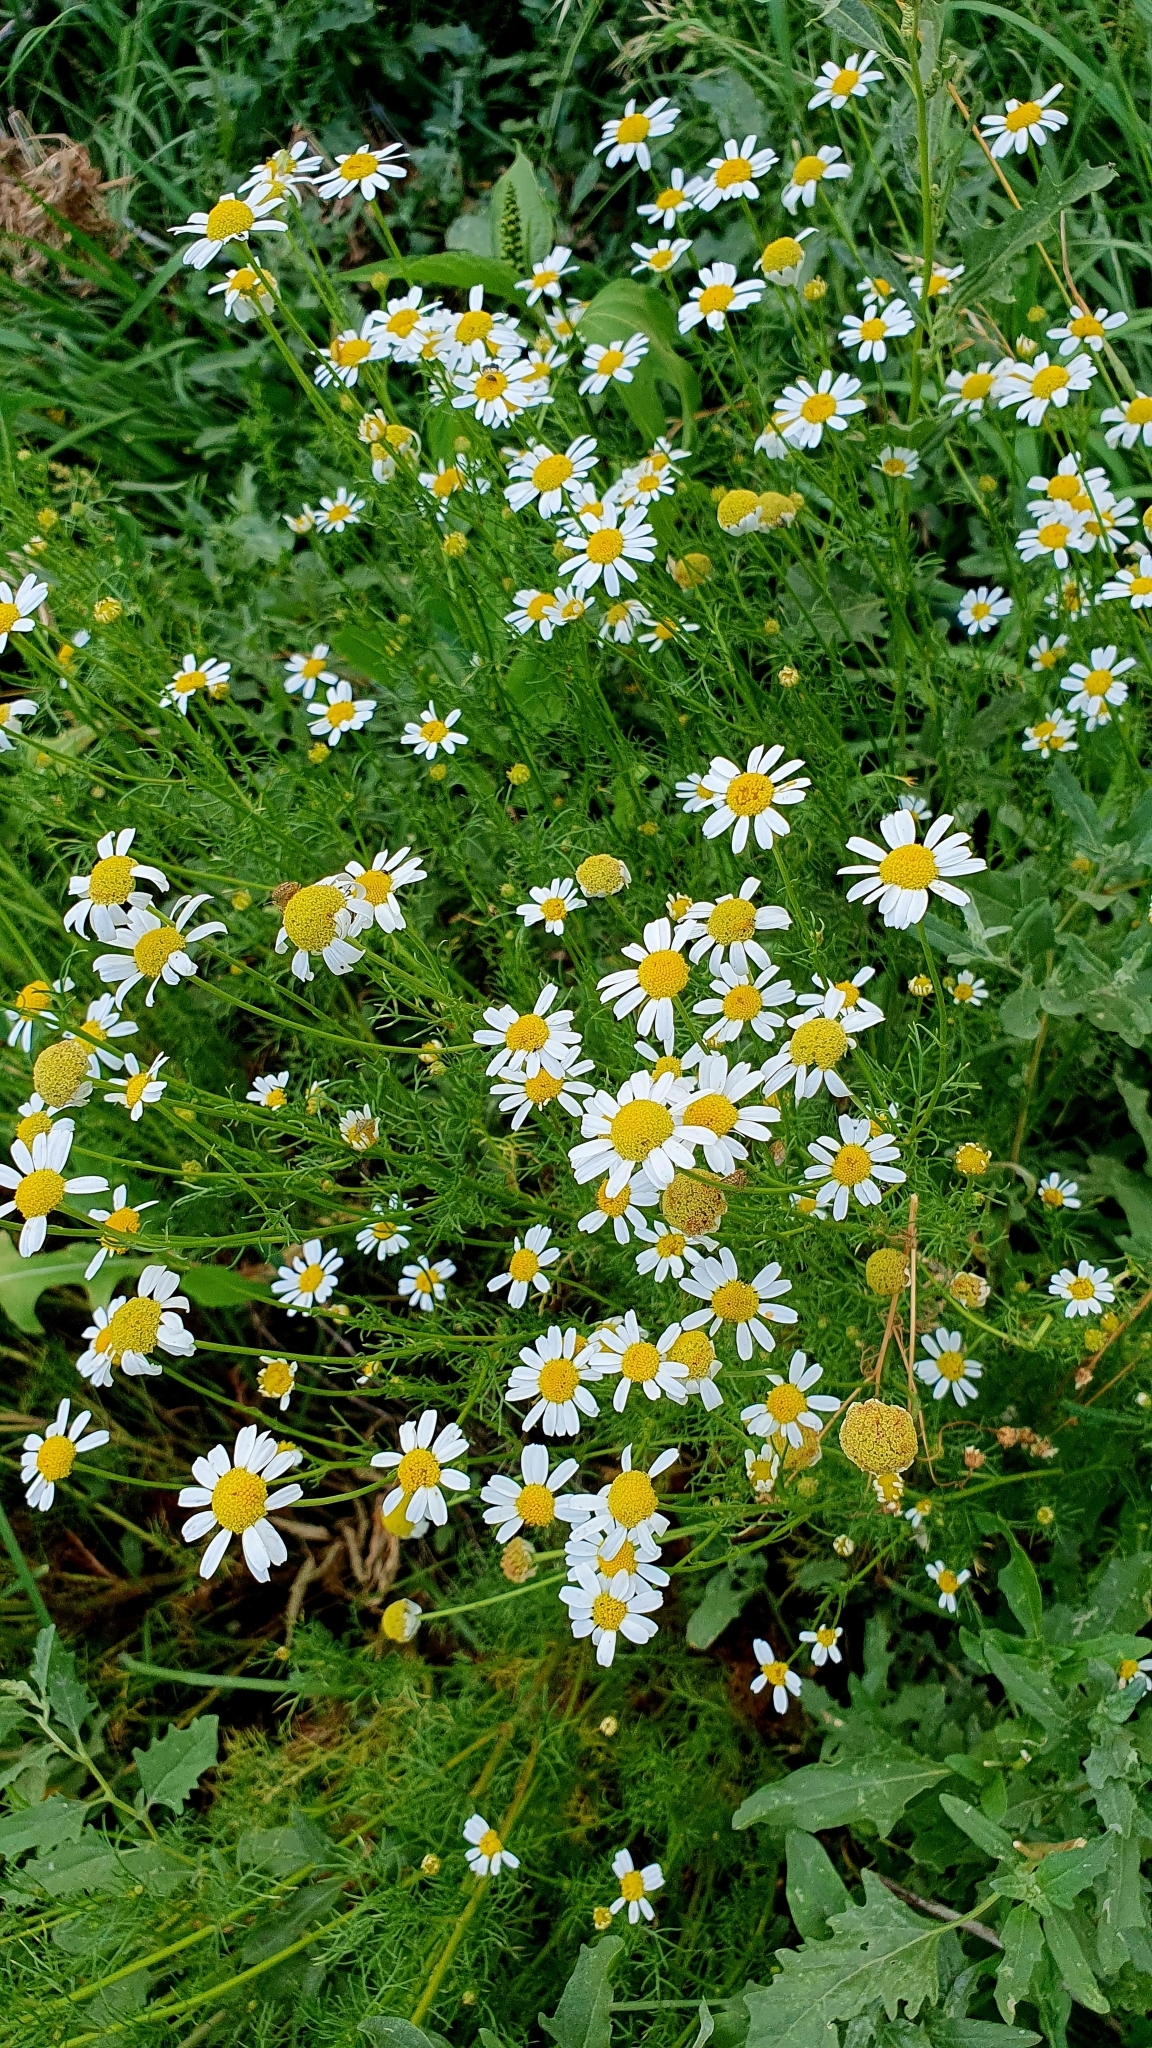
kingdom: Plantae
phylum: Tracheophyta
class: Magnoliopsida
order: Asterales
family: Asteraceae
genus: Tripleurospermum
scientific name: Tripleurospermum inodorum
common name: Scentless mayweed
